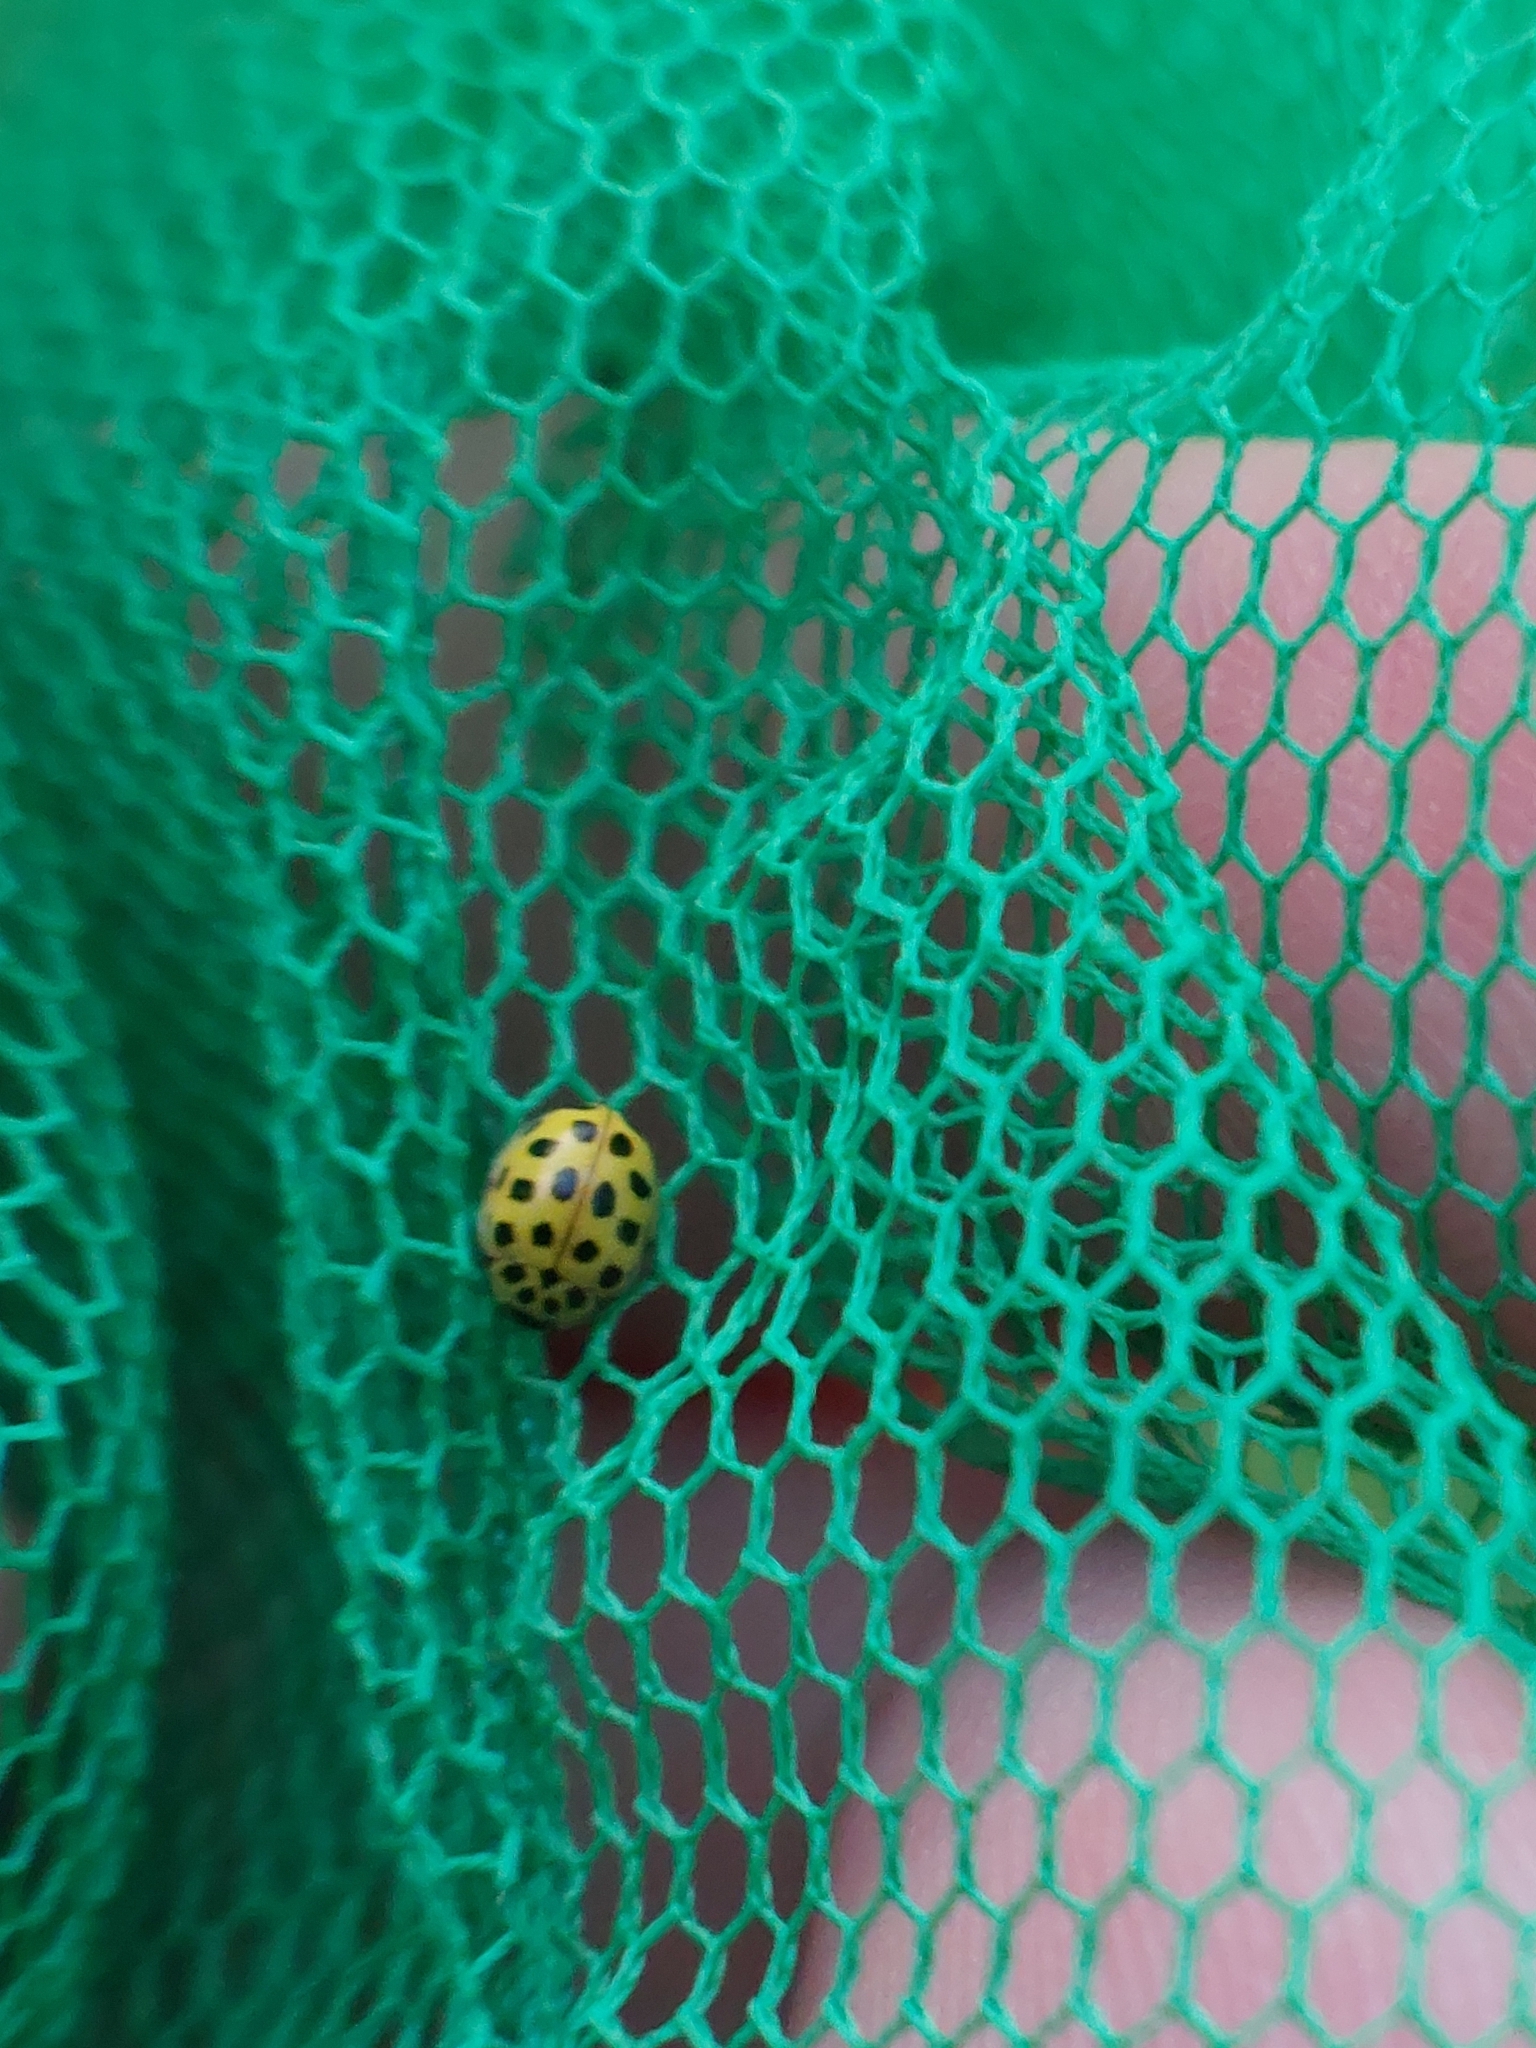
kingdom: Animalia
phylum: Arthropoda
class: Insecta
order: Coleoptera
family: Coccinellidae
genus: Psyllobora
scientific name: Psyllobora vigintiduopunctata
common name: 22-spot ladybird
